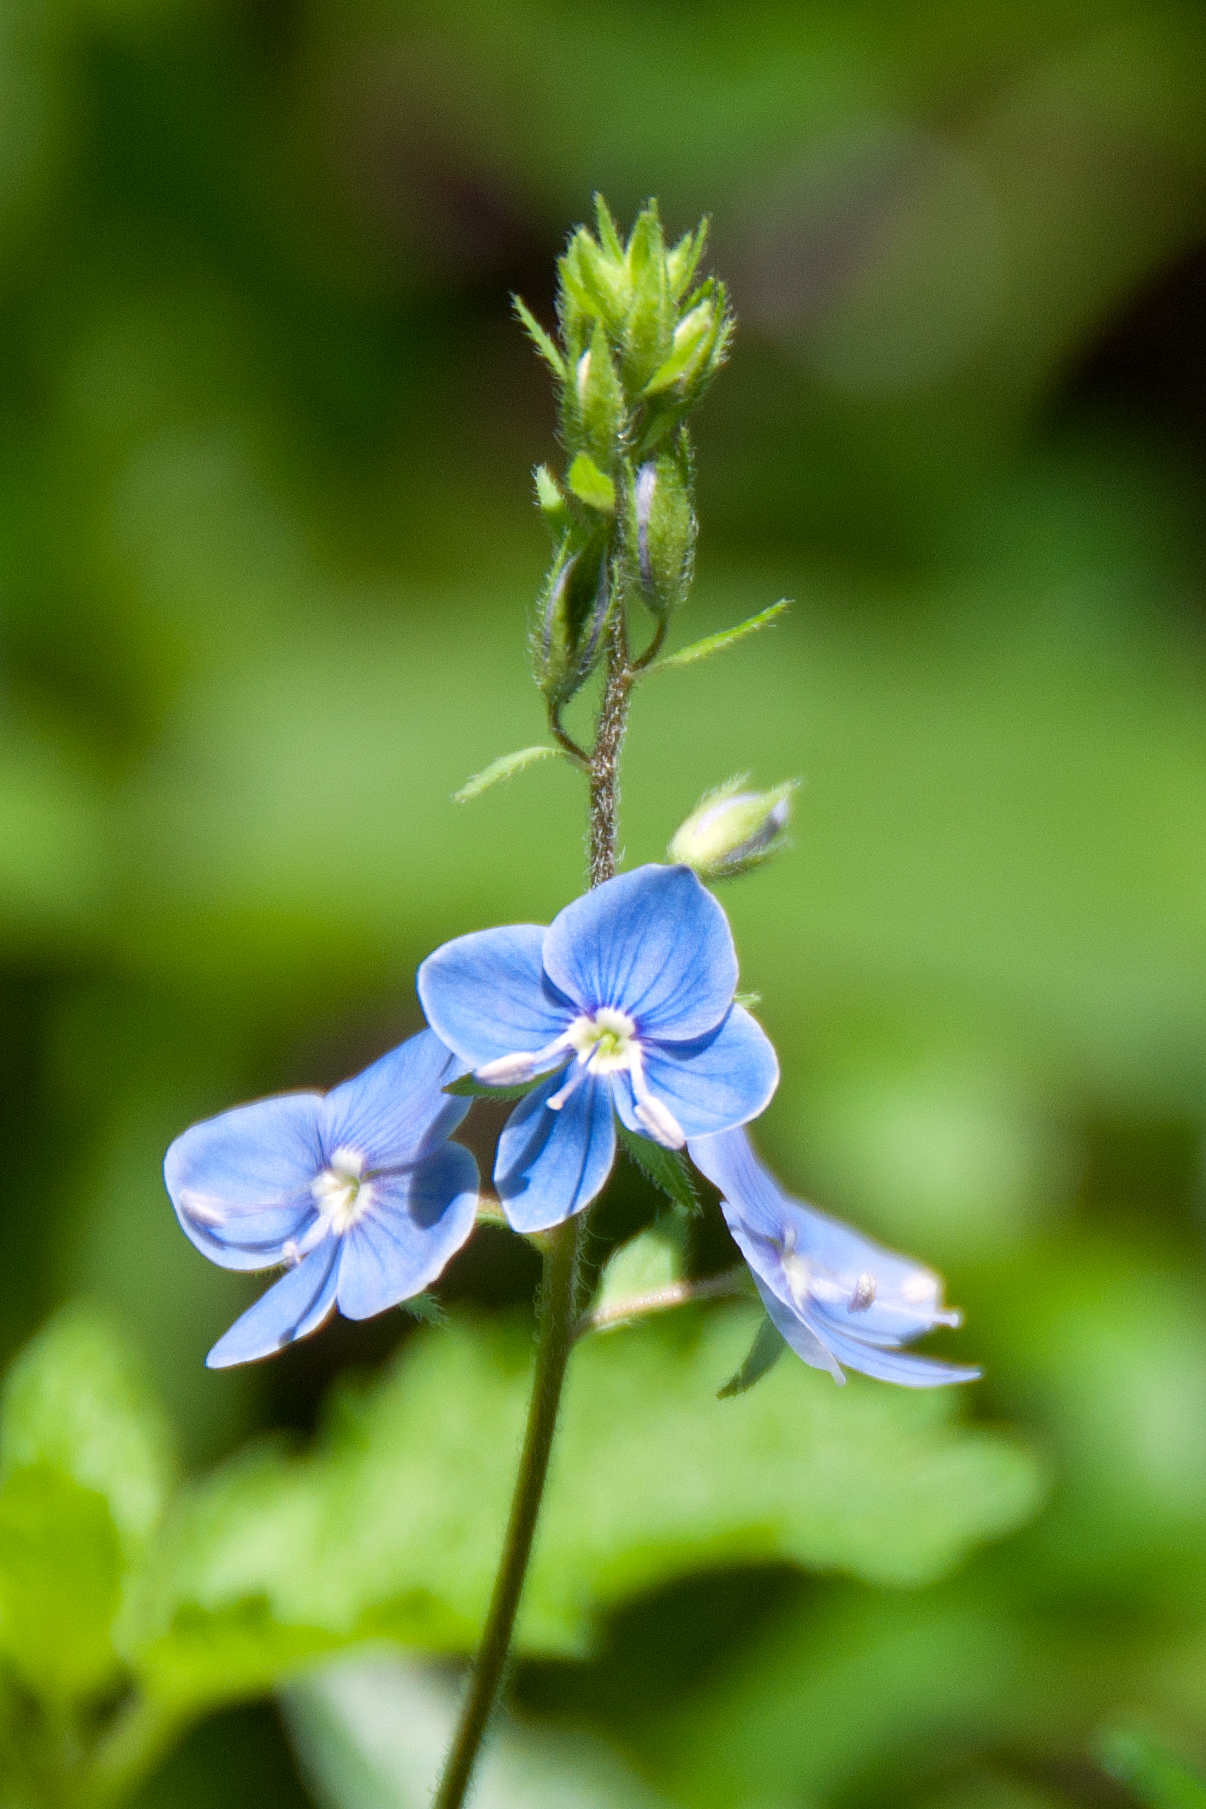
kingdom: Plantae
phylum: Tracheophyta
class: Magnoliopsida
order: Lamiales
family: Plantaginaceae
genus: Veronica
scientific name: Veronica chamaedrys
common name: Germander speedwell
